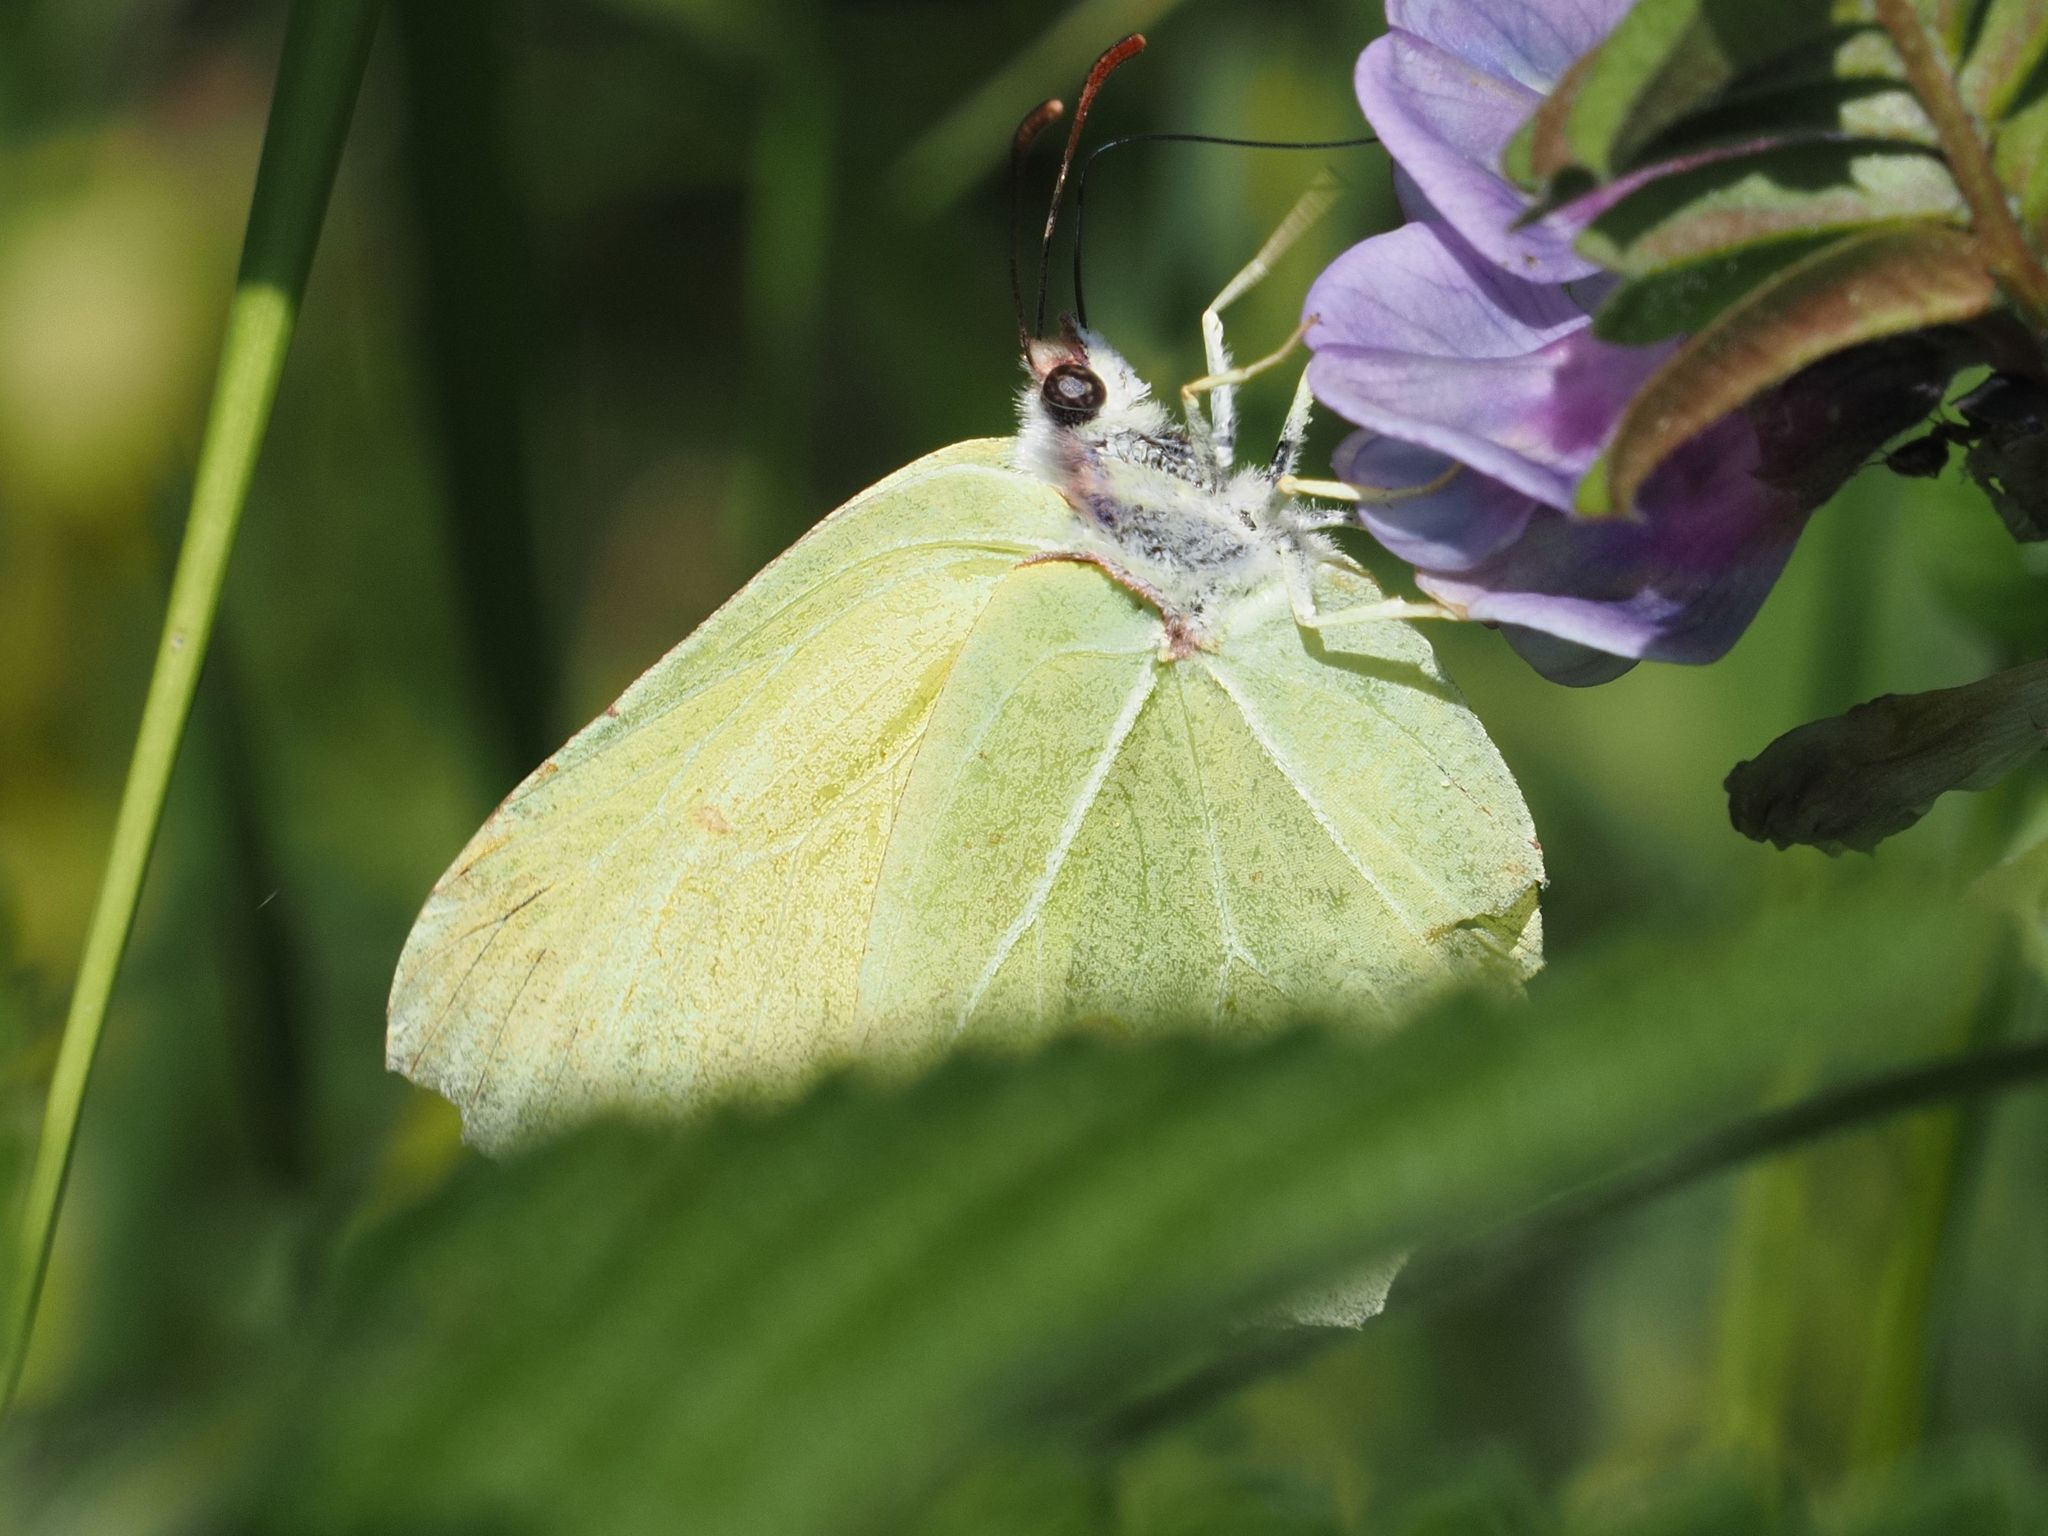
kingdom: Animalia
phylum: Arthropoda
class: Insecta
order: Lepidoptera
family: Pieridae
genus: Gonepteryx
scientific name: Gonepteryx rhamni
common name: Brimstone
